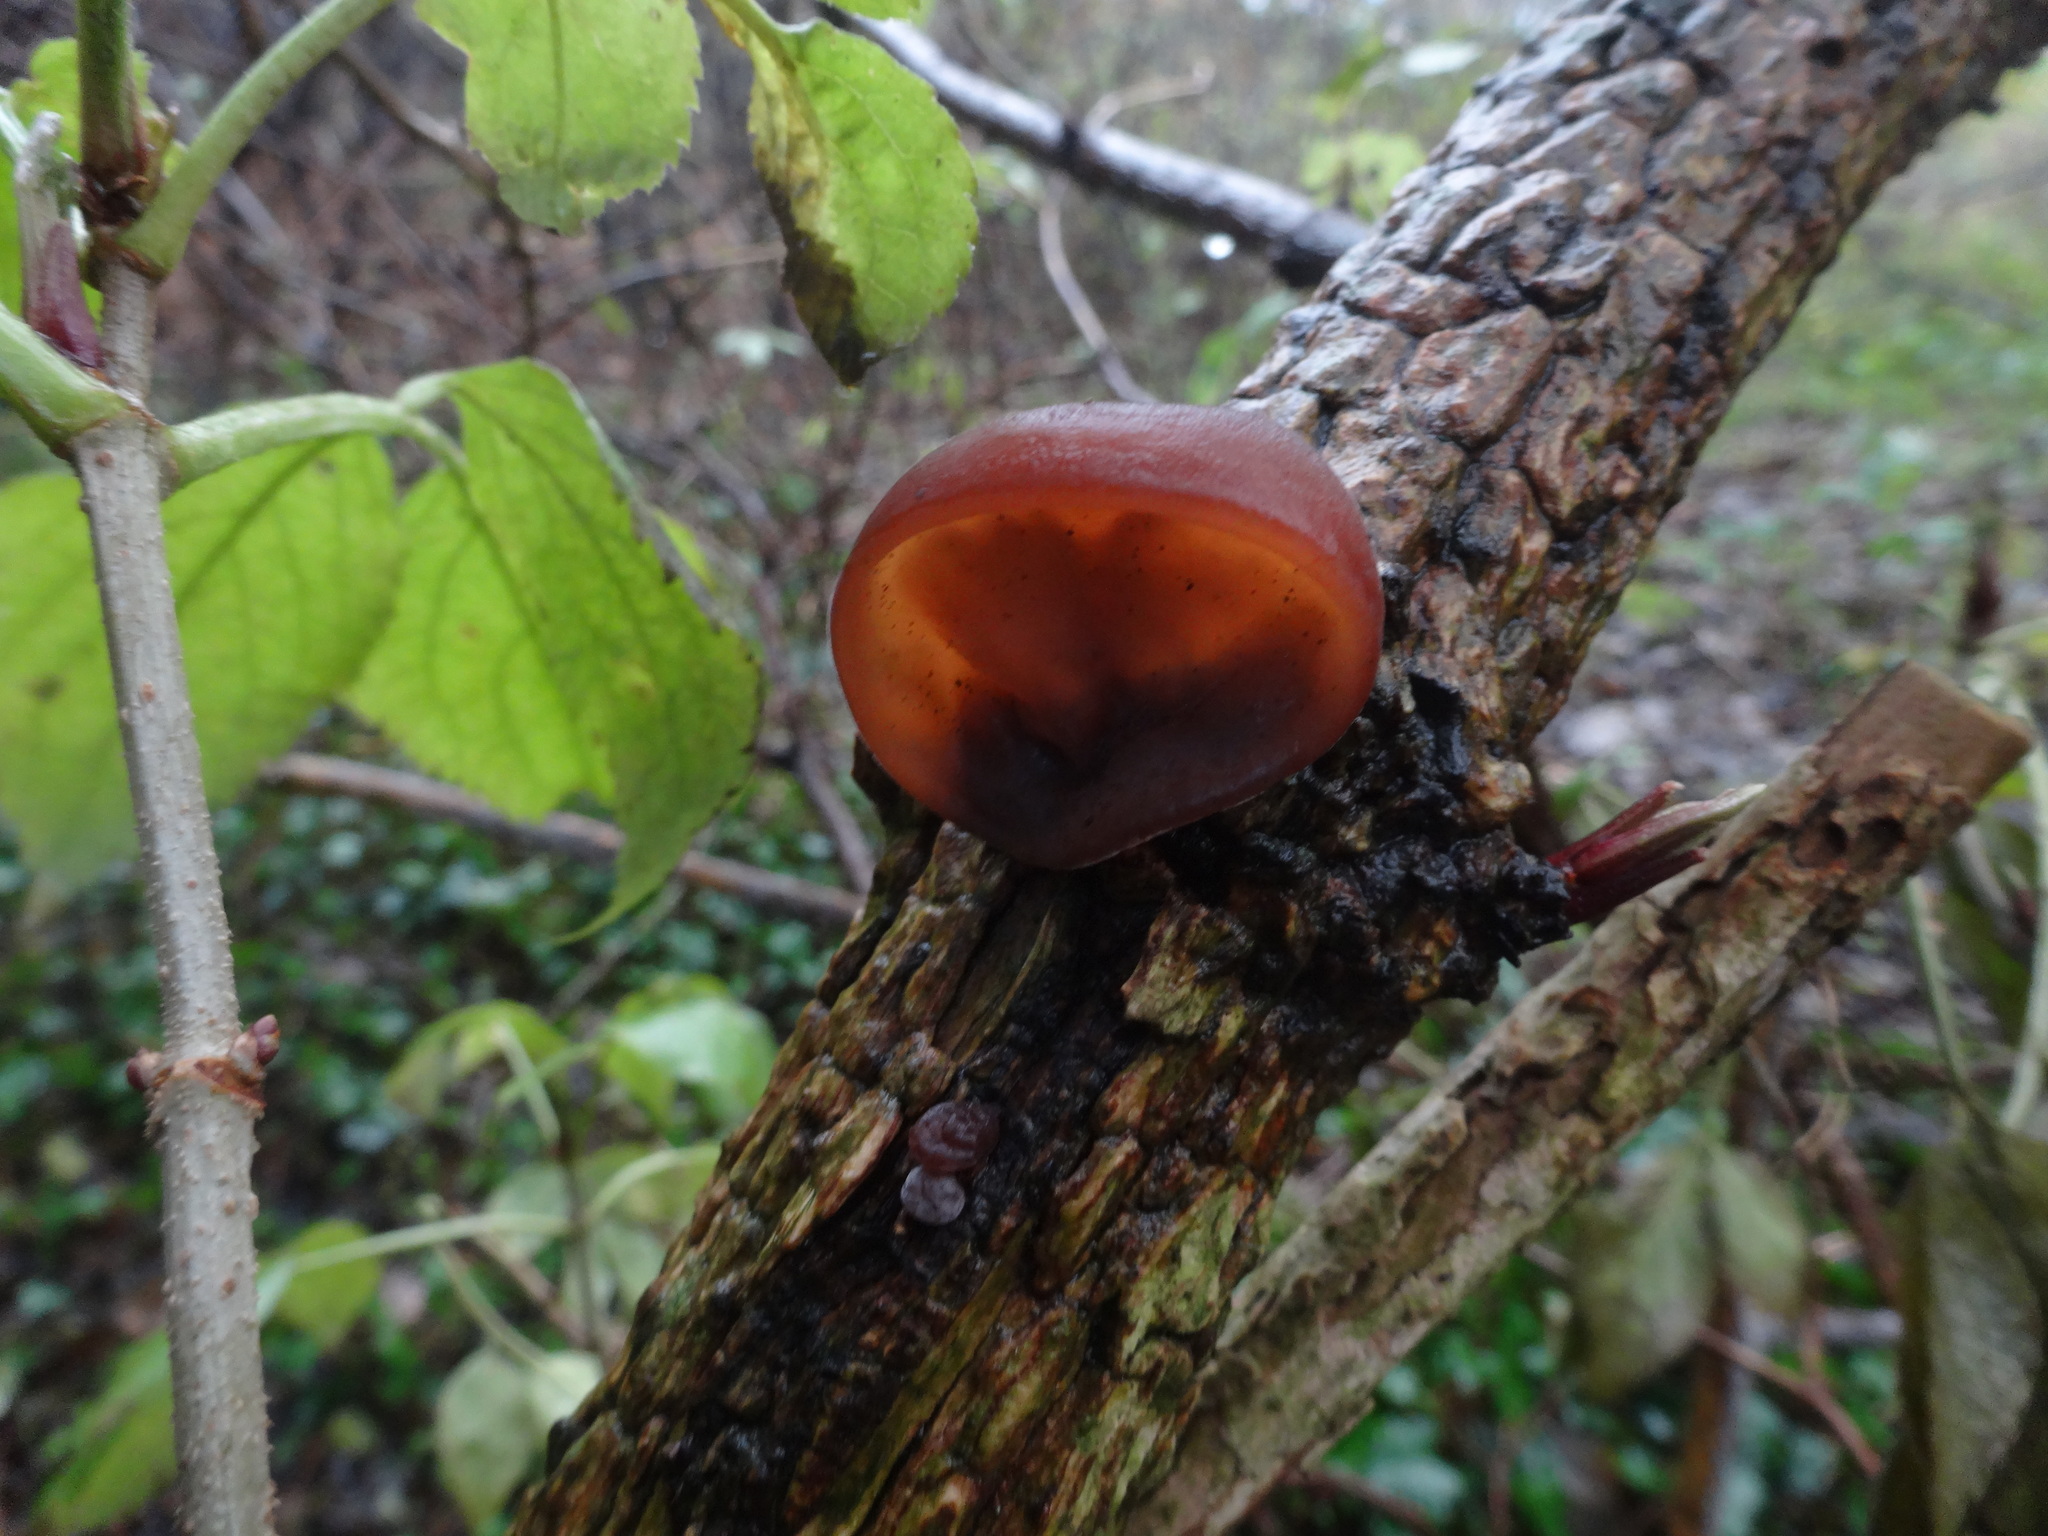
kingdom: Fungi
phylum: Basidiomycota
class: Agaricomycetes
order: Auriculariales
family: Auriculariaceae
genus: Auricularia
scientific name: Auricularia auricula-judae
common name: Jelly ear
